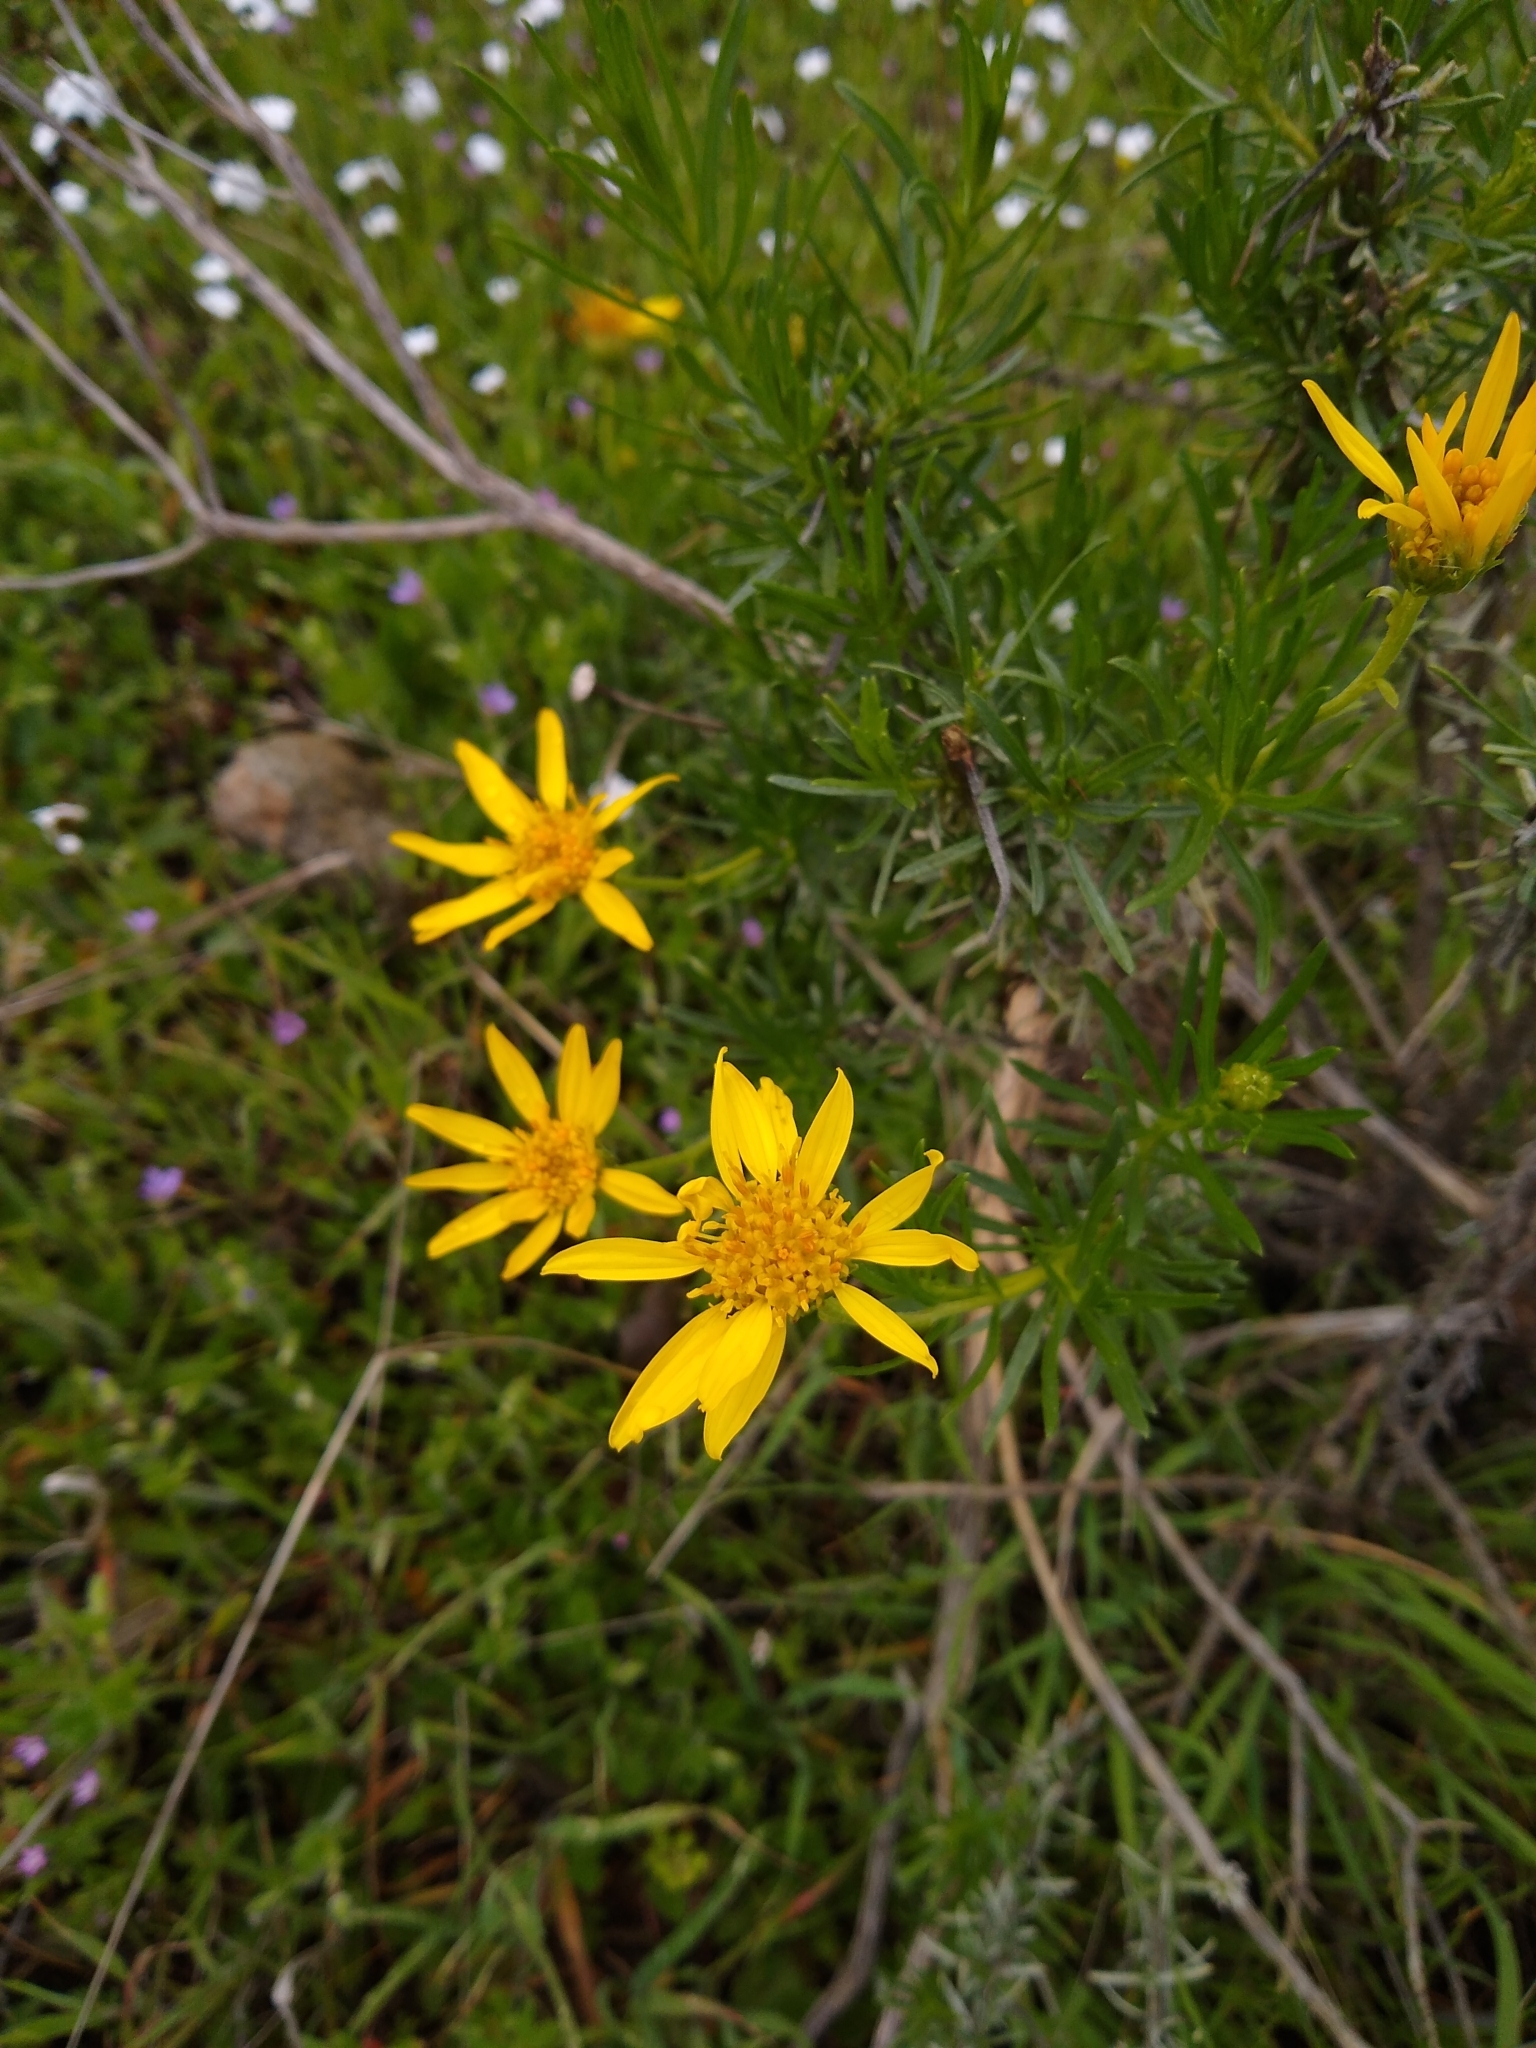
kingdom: Plantae
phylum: Tracheophyta
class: Magnoliopsida
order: Asterales
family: Asteraceae
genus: Ericameria
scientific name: Ericameria linearifolia
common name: Interior goldenbush
